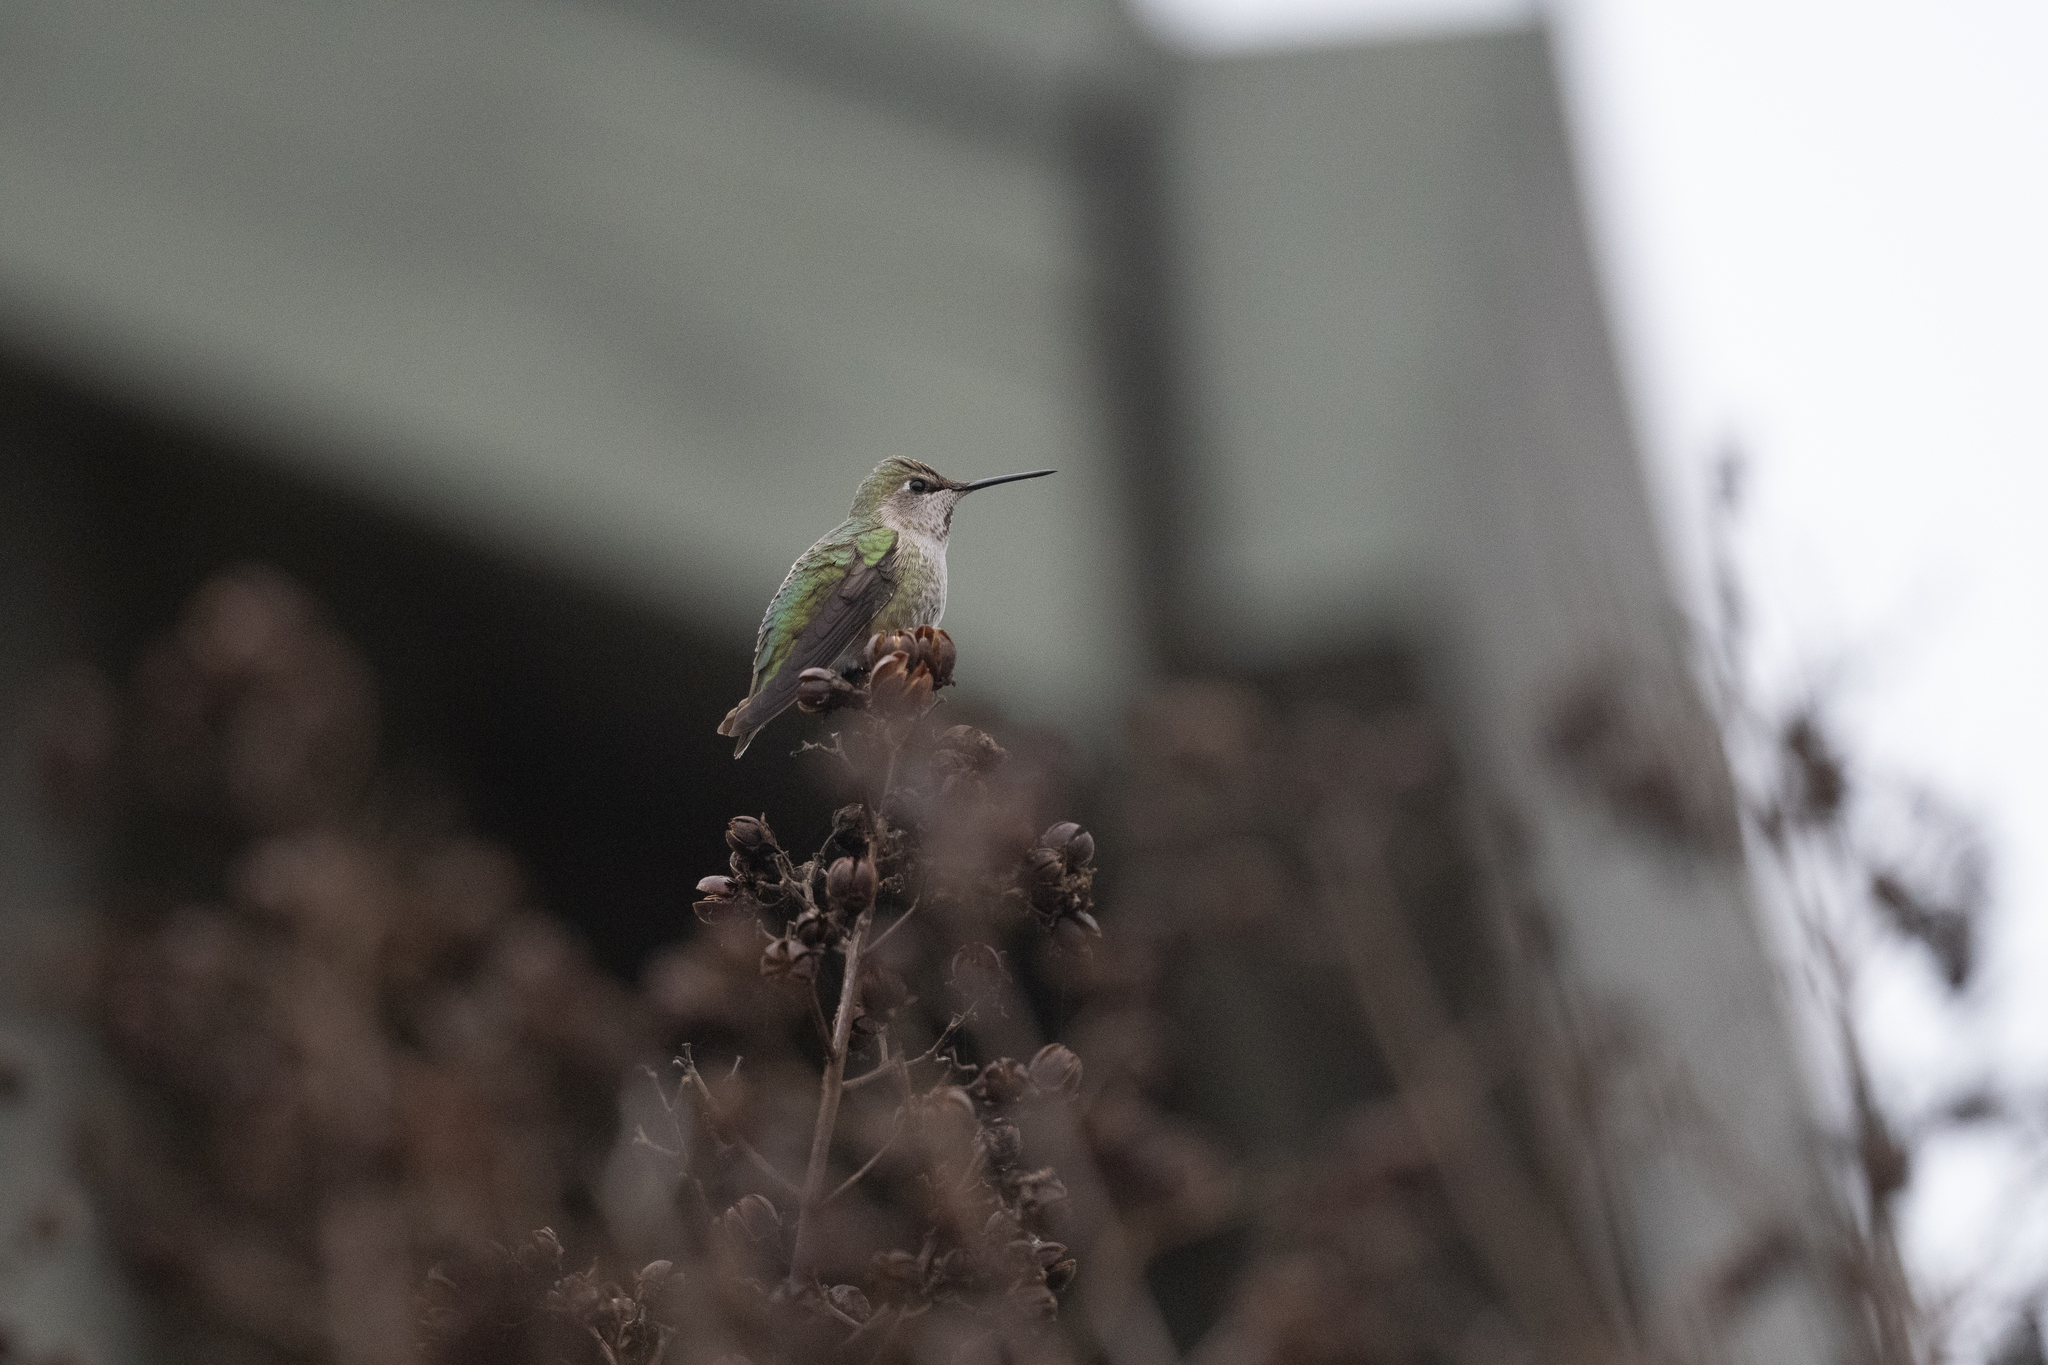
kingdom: Animalia
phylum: Chordata
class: Aves
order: Apodiformes
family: Trochilidae
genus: Calypte
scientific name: Calypte anna
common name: Anna's hummingbird
